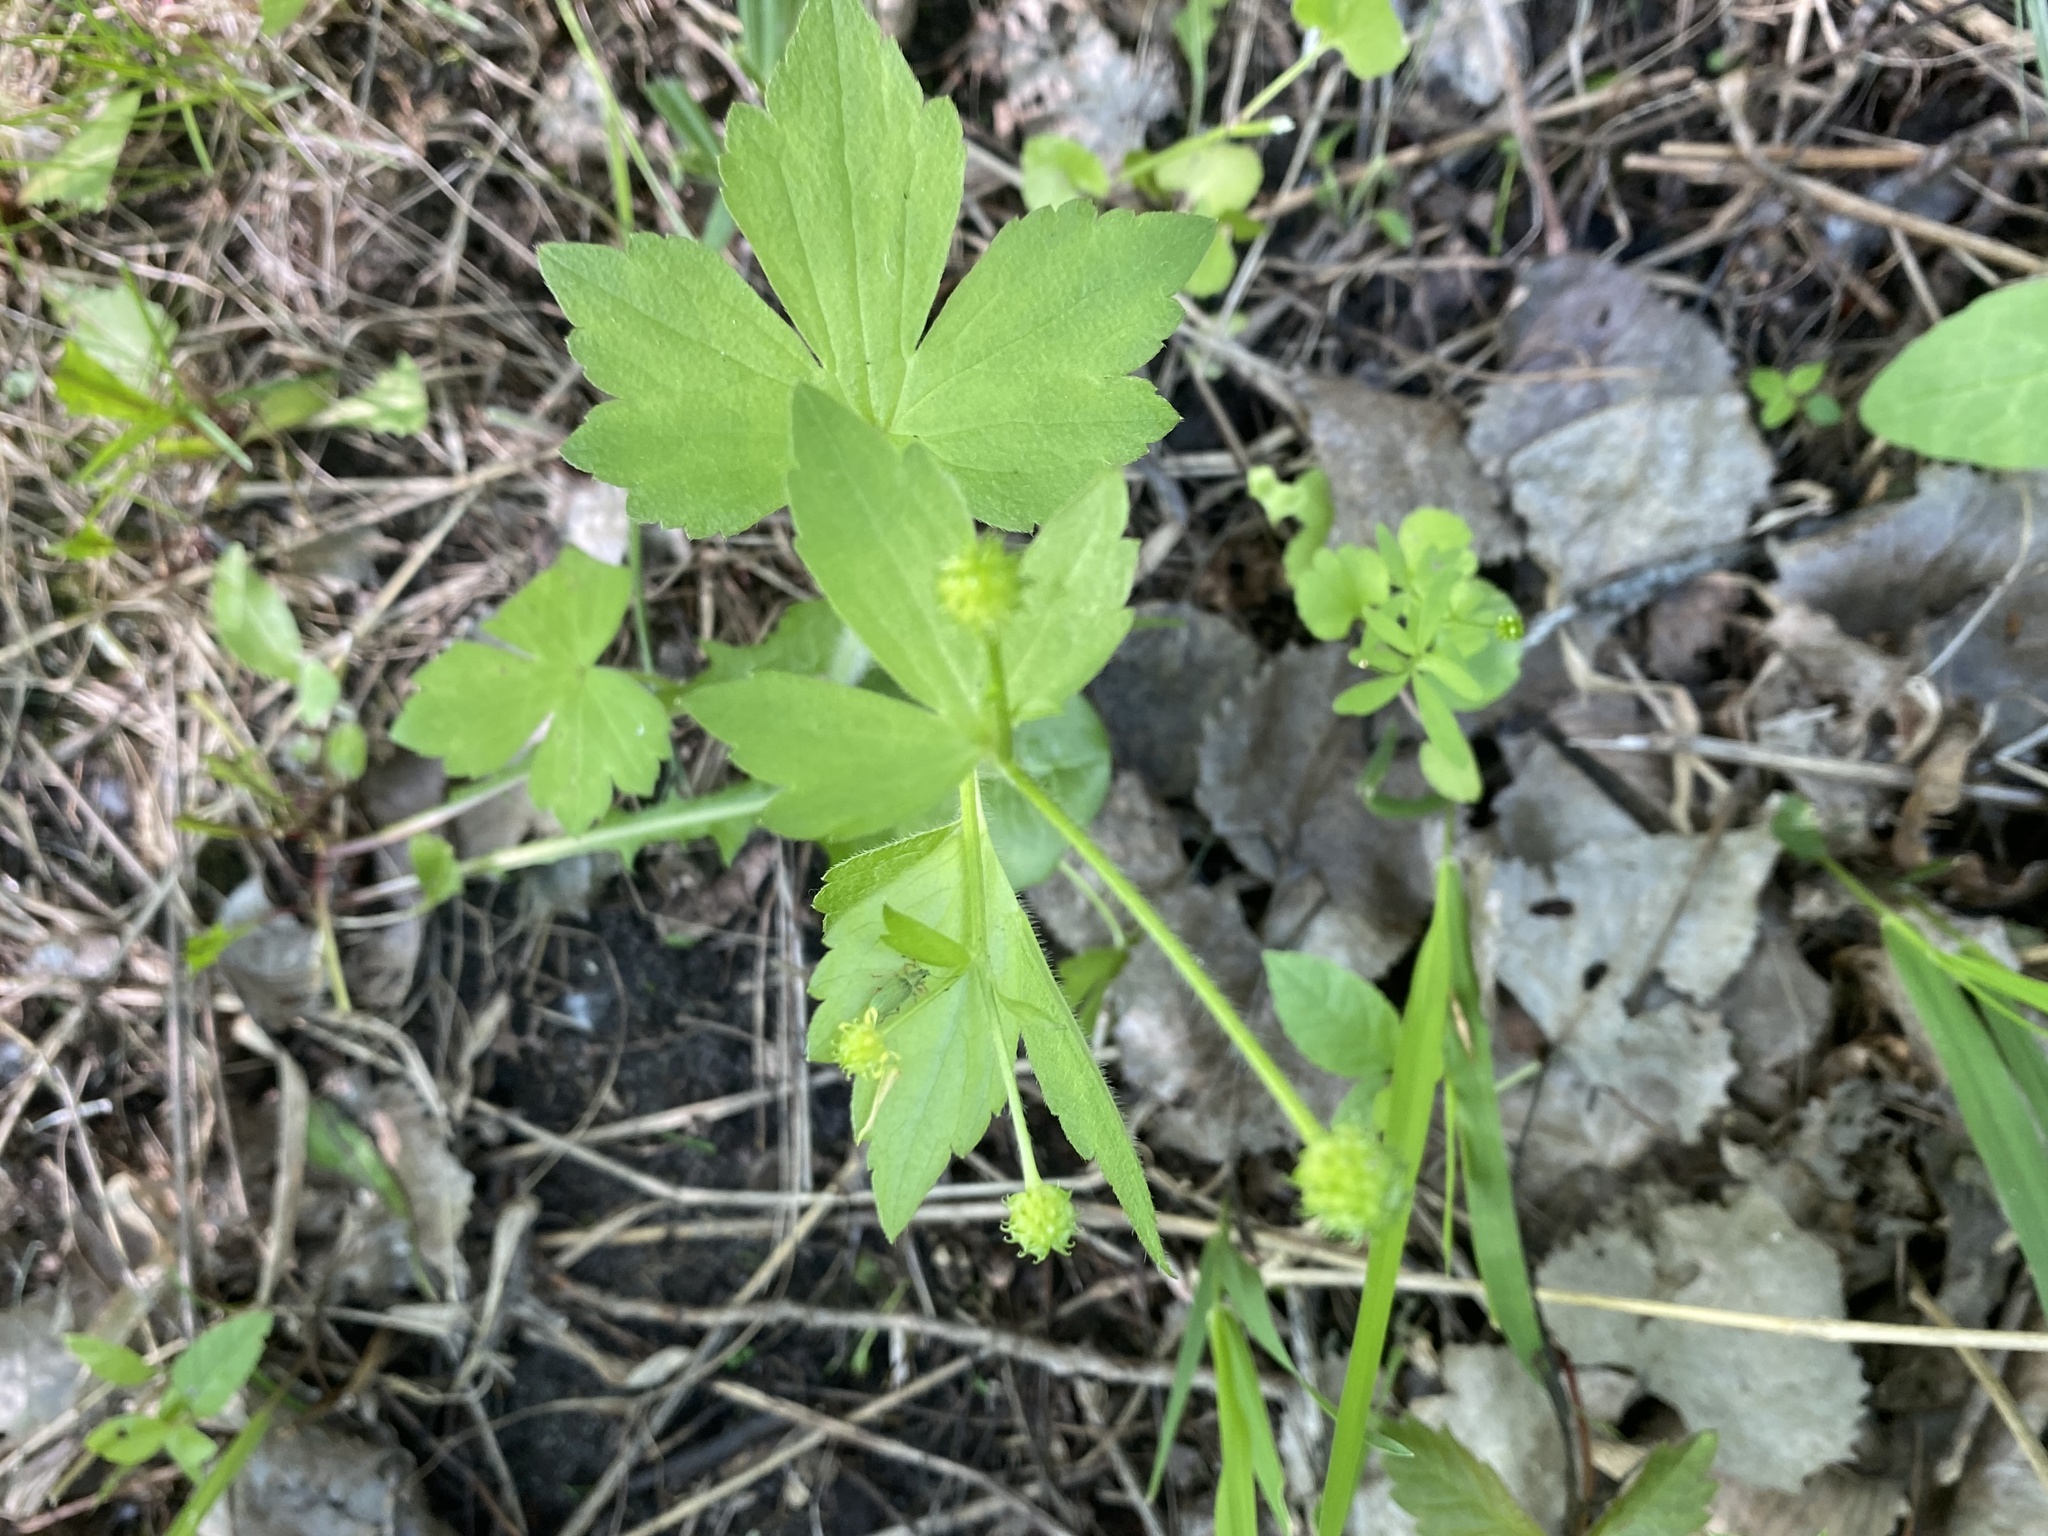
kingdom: Plantae
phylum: Tracheophyta
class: Magnoliopsida
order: Ranunculales
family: Ranunculaceae
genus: Ranunculus
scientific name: Ranunculus recurvatus
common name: Blisterwort
